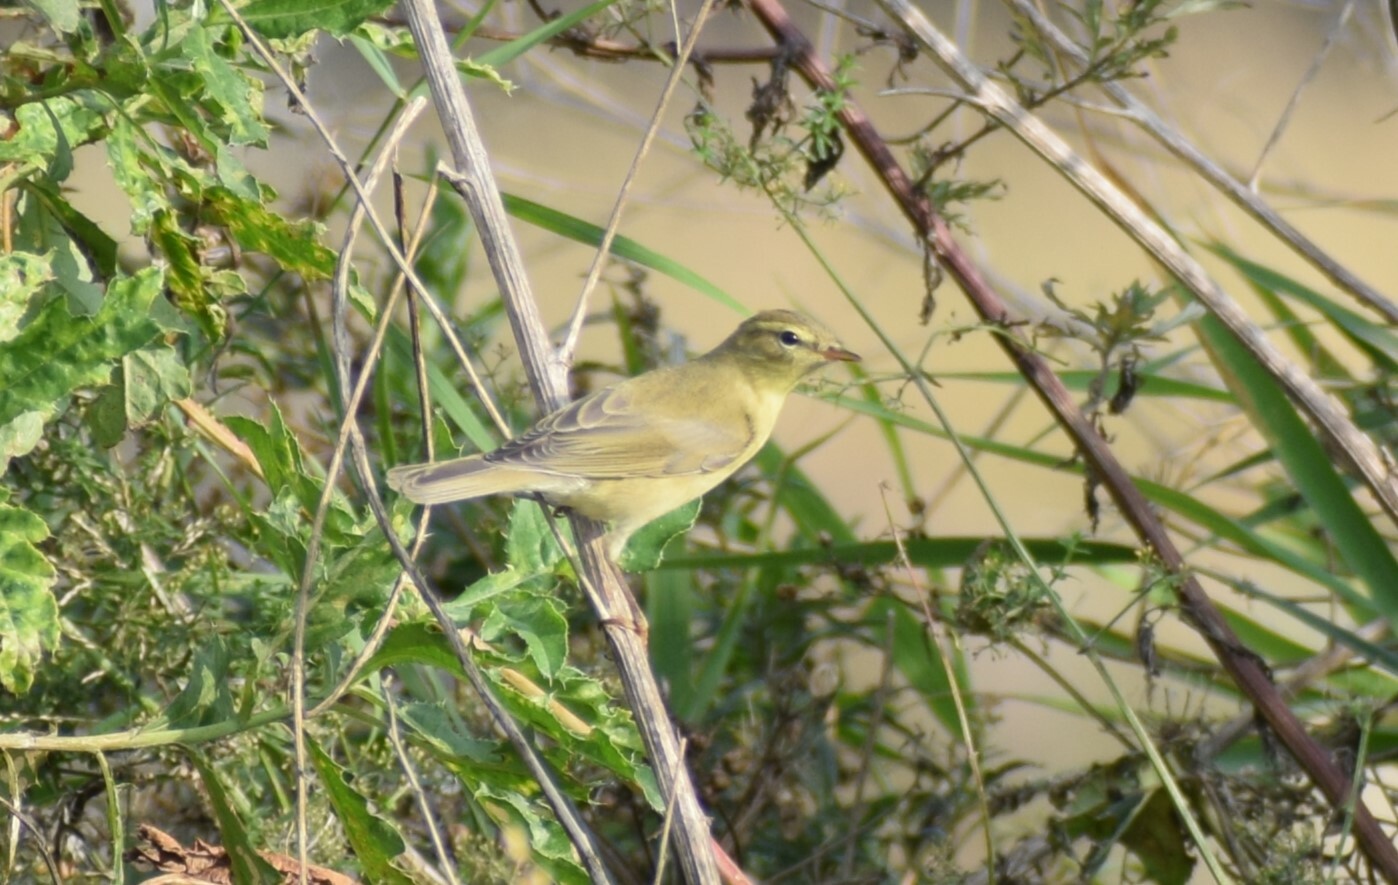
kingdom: Animalia
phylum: Chordata
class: Aves
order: Passeriformes
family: Phylloscopidae
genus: Phylloscopus
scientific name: Phylloscopus trochilus
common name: Willow warbler
